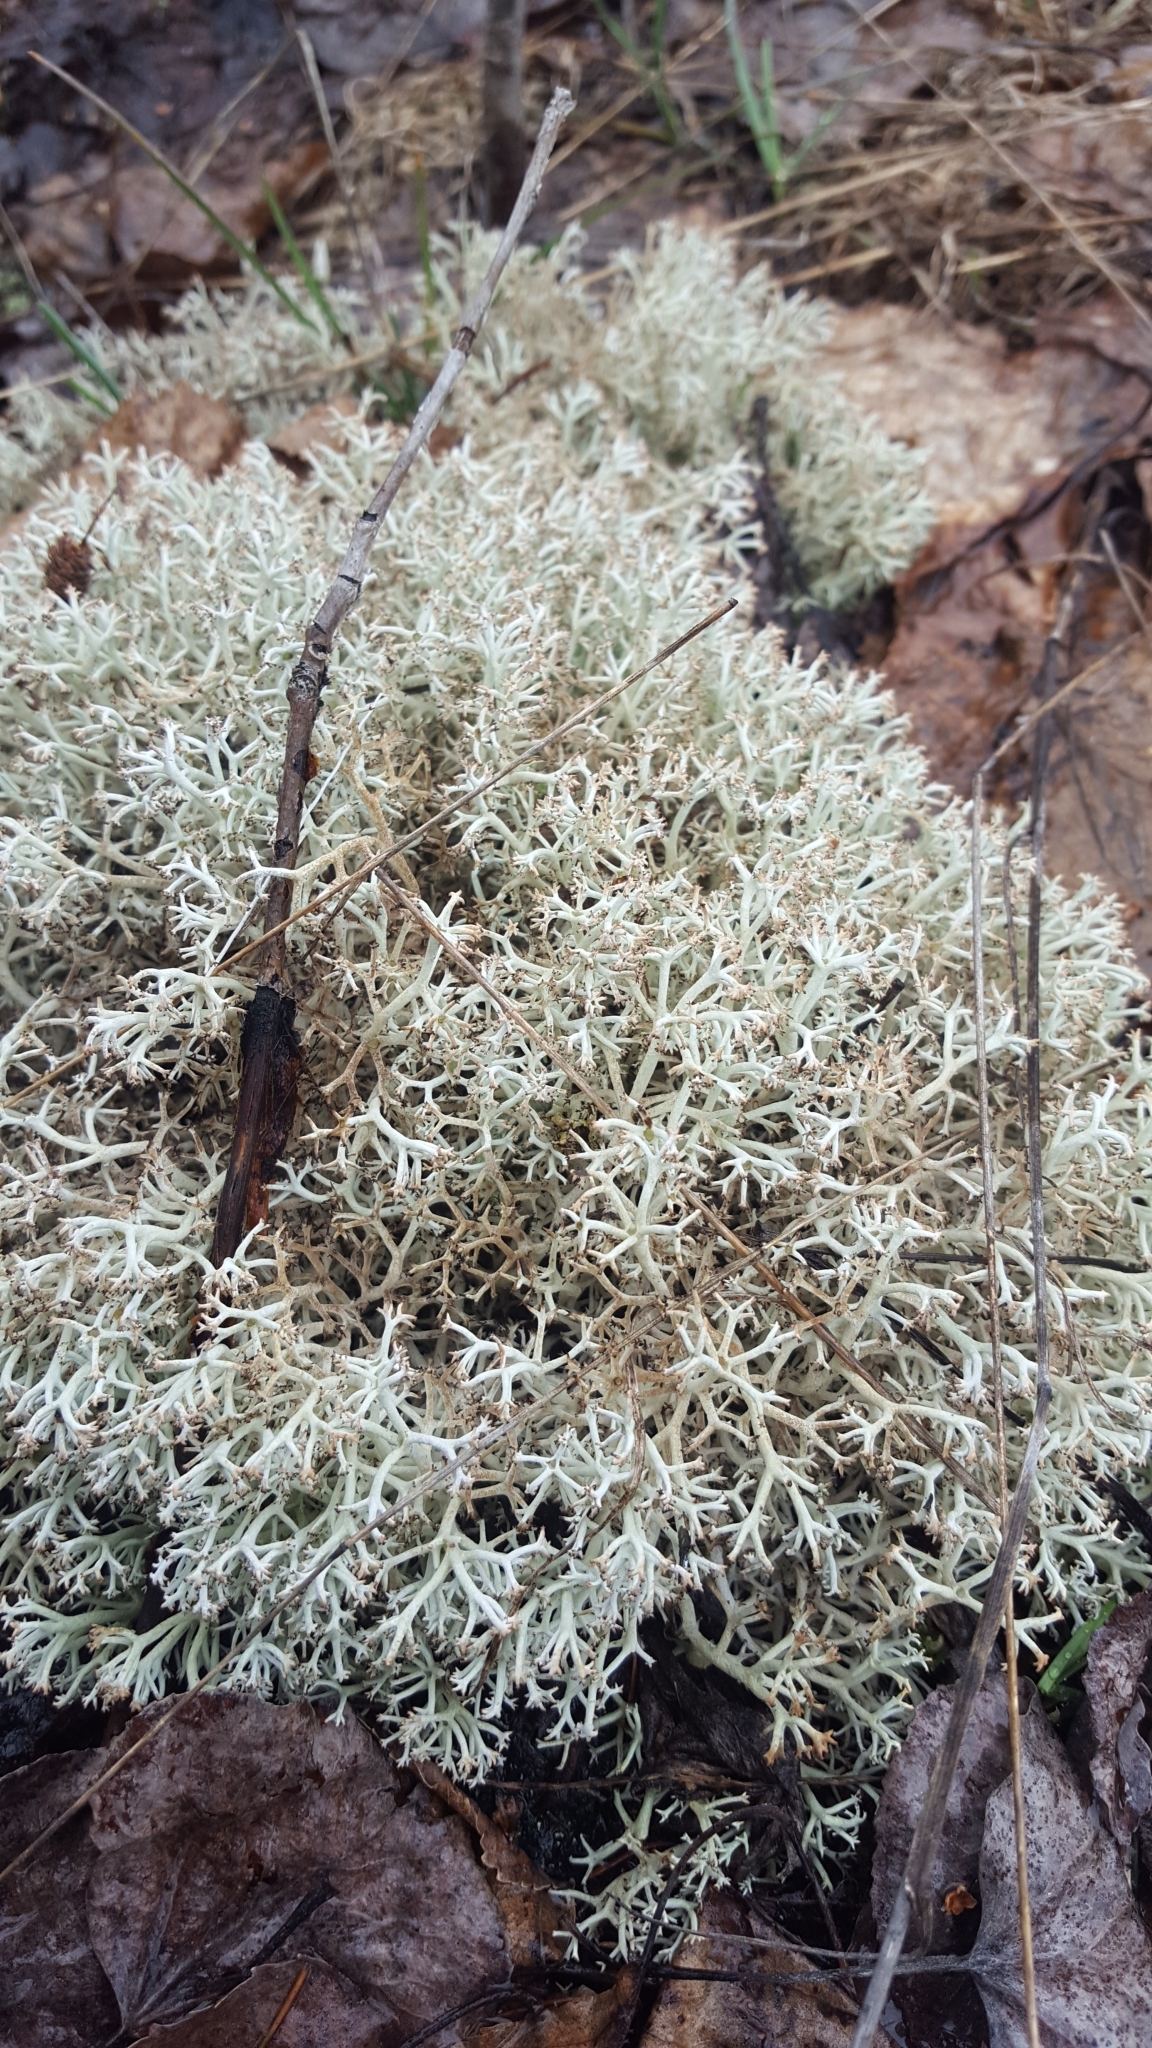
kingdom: Fungi
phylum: Ascomycota
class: Lecanoromycetes
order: Lecanorales
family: Cladoniaceae
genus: Cladonia
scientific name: Cladonia rangiferina
